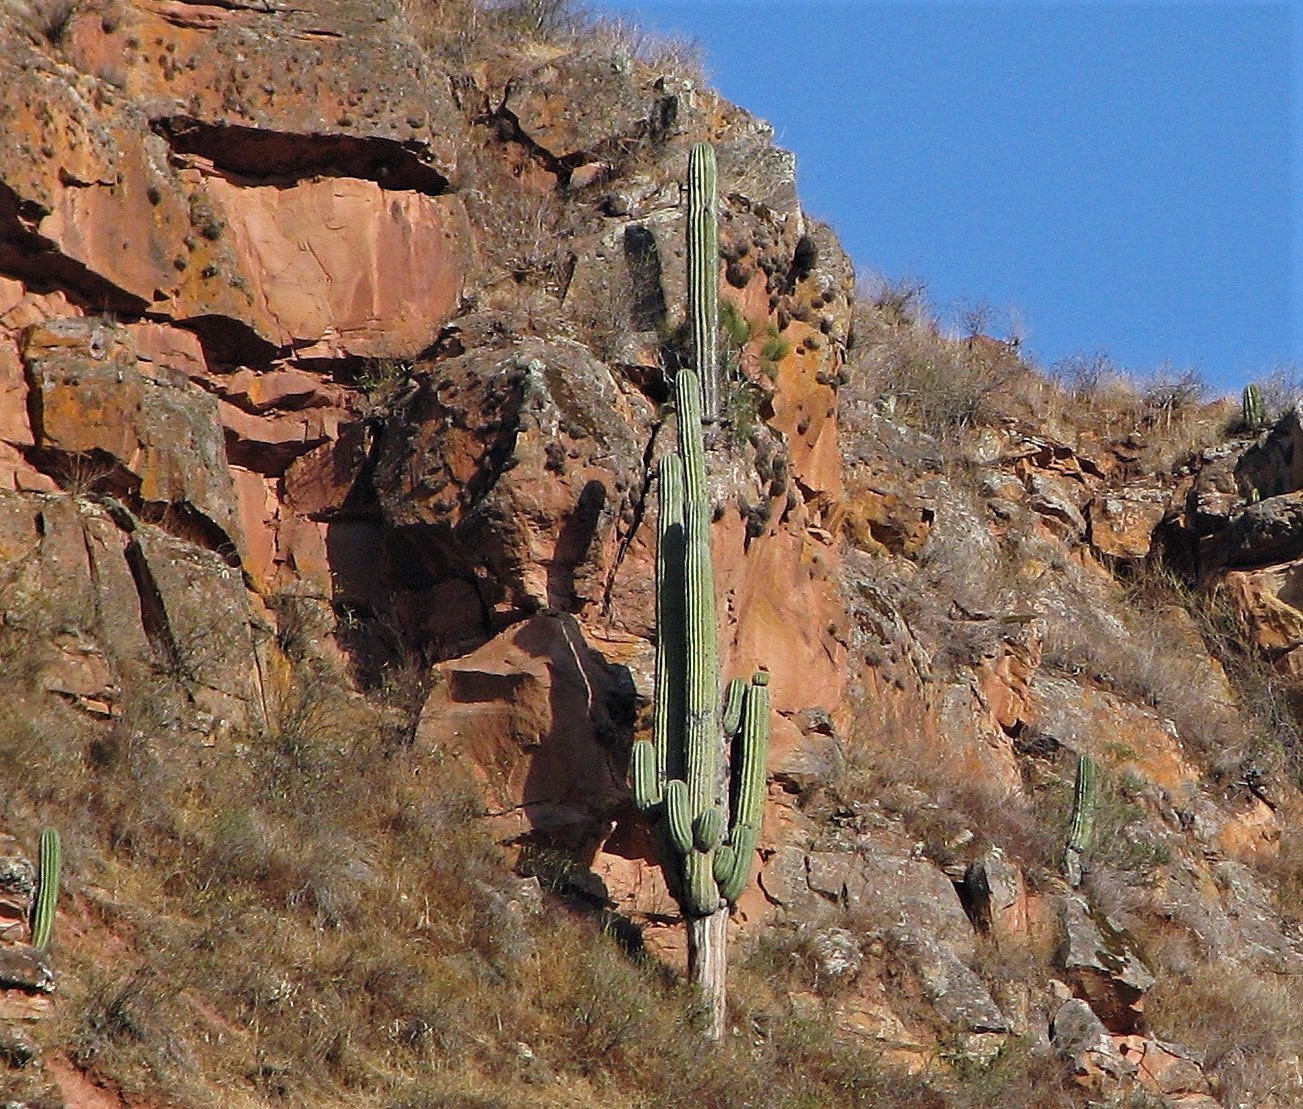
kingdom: Plantae
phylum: Tracheophyta
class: Magnoliopsida
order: Caryophyllales
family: Cactaceae
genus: Leucostele
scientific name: Leucostele terscheckii
